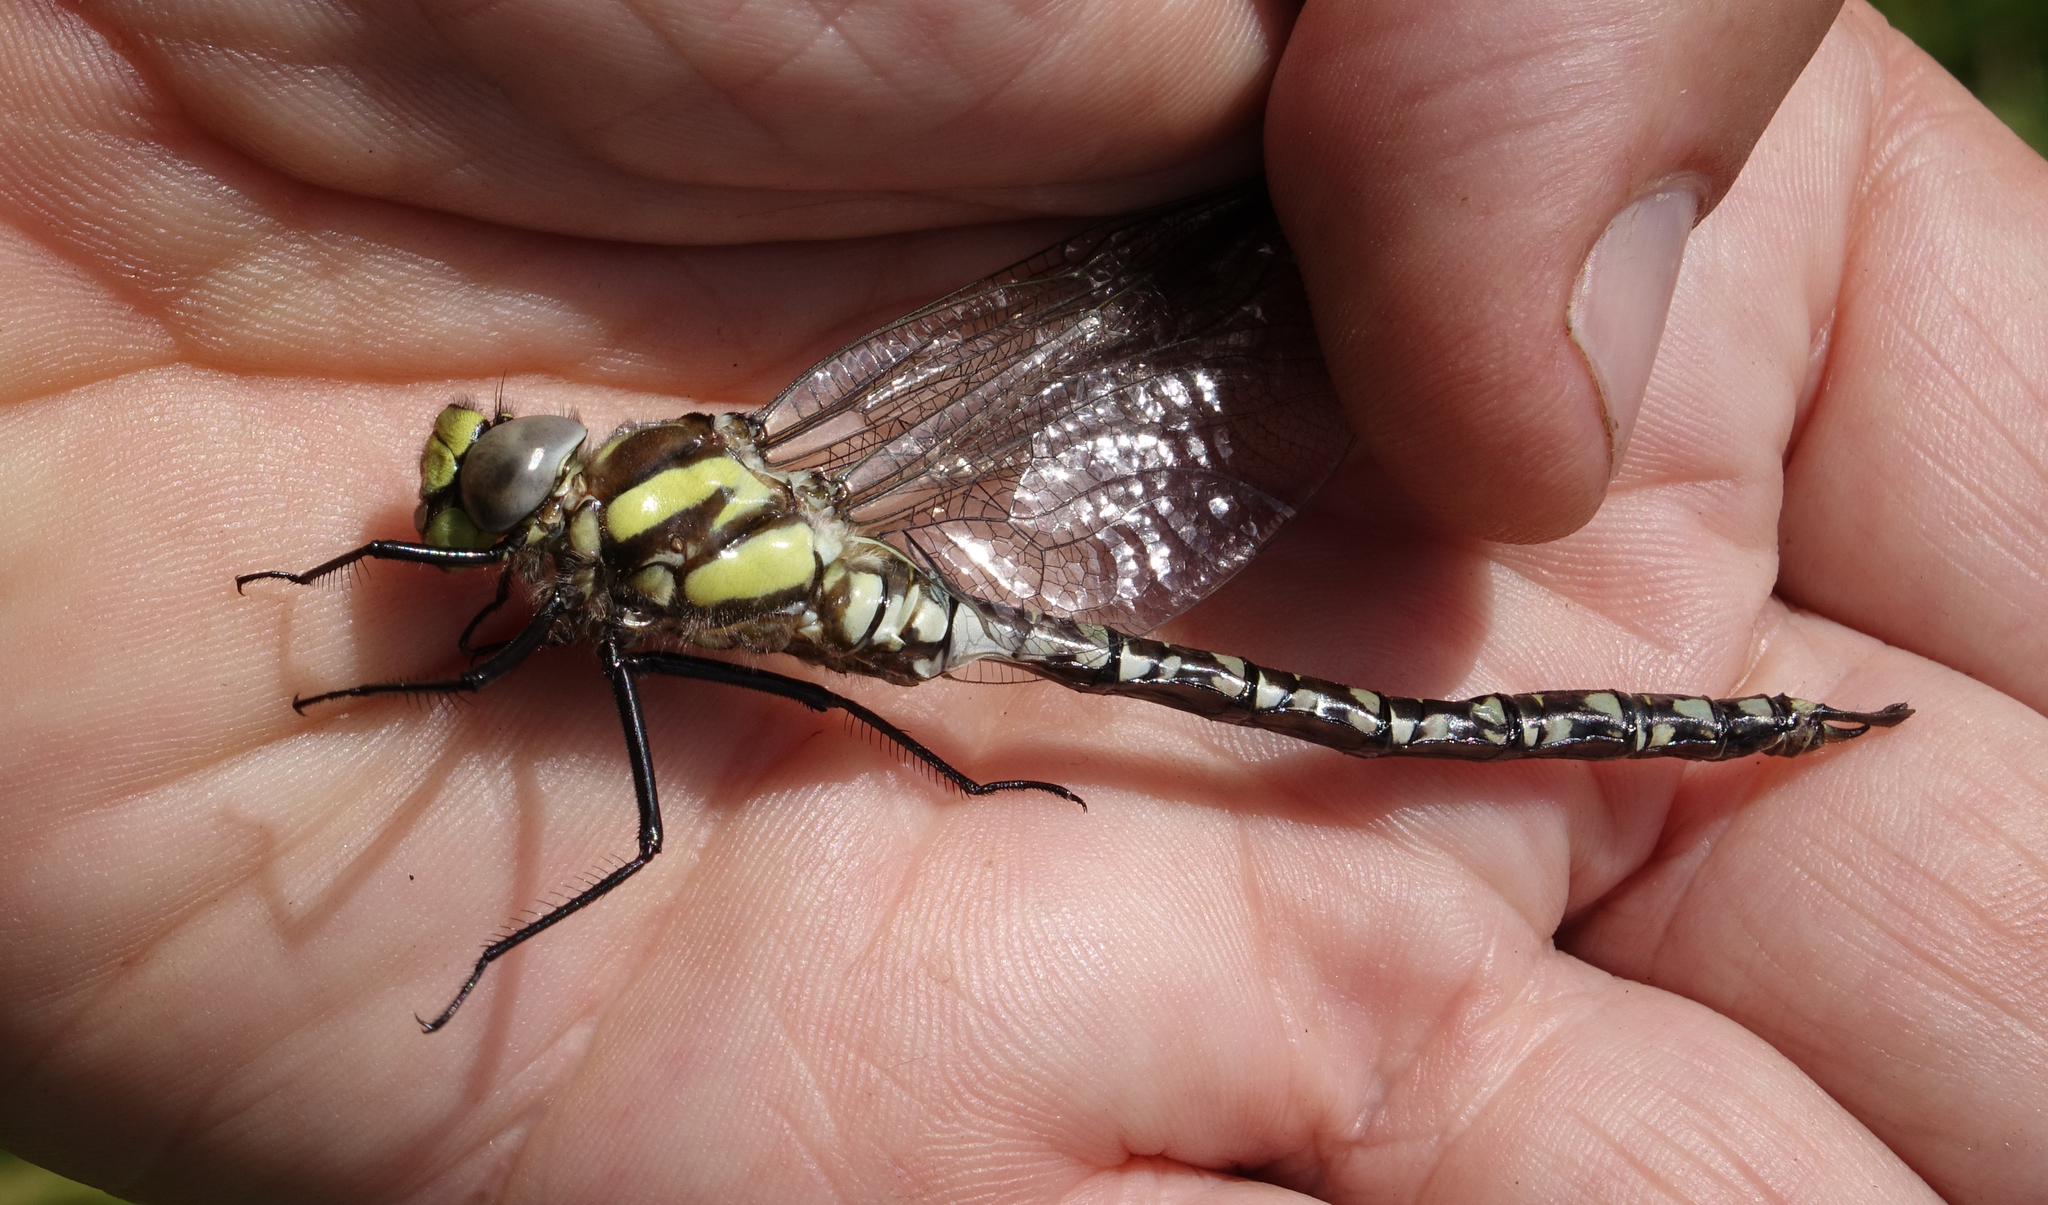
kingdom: Animalia
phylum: Arthropoda
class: Insecta
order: Odonata
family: Aeshnidae
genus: Aeshna
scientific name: Aeshna juncea
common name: Moorland hawker
